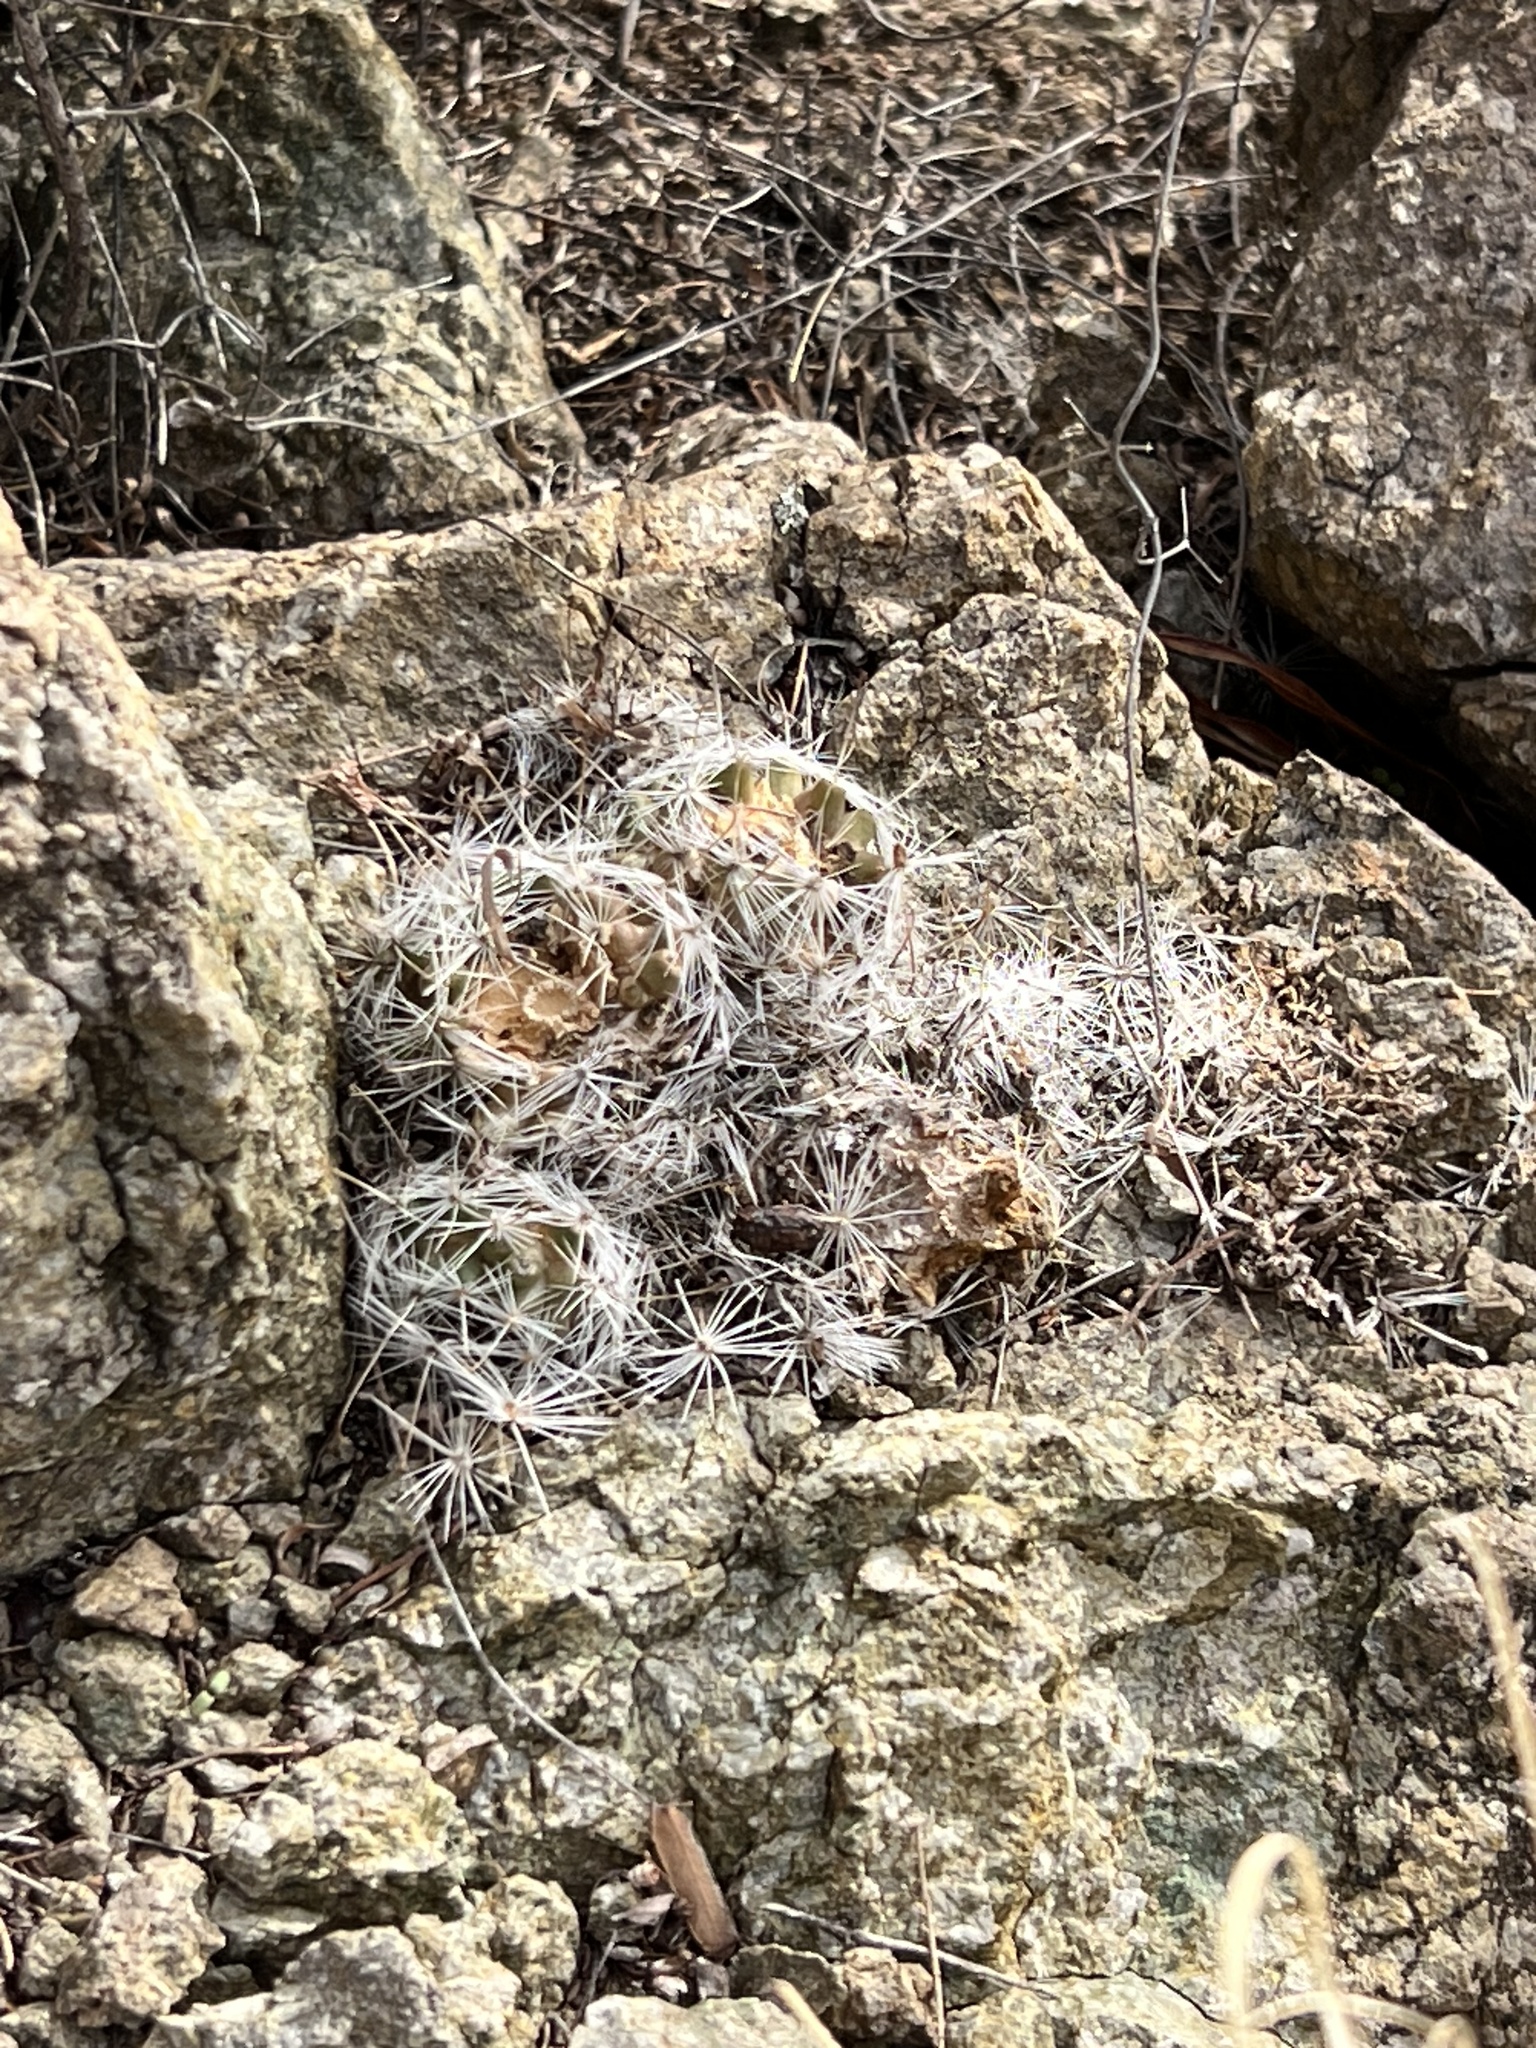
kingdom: Plantae
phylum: Tracheophyta
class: Magnoliopsida
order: Caryophyllales
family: Cactaceae
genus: Cochemiea
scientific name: Cochemiea grahamii
